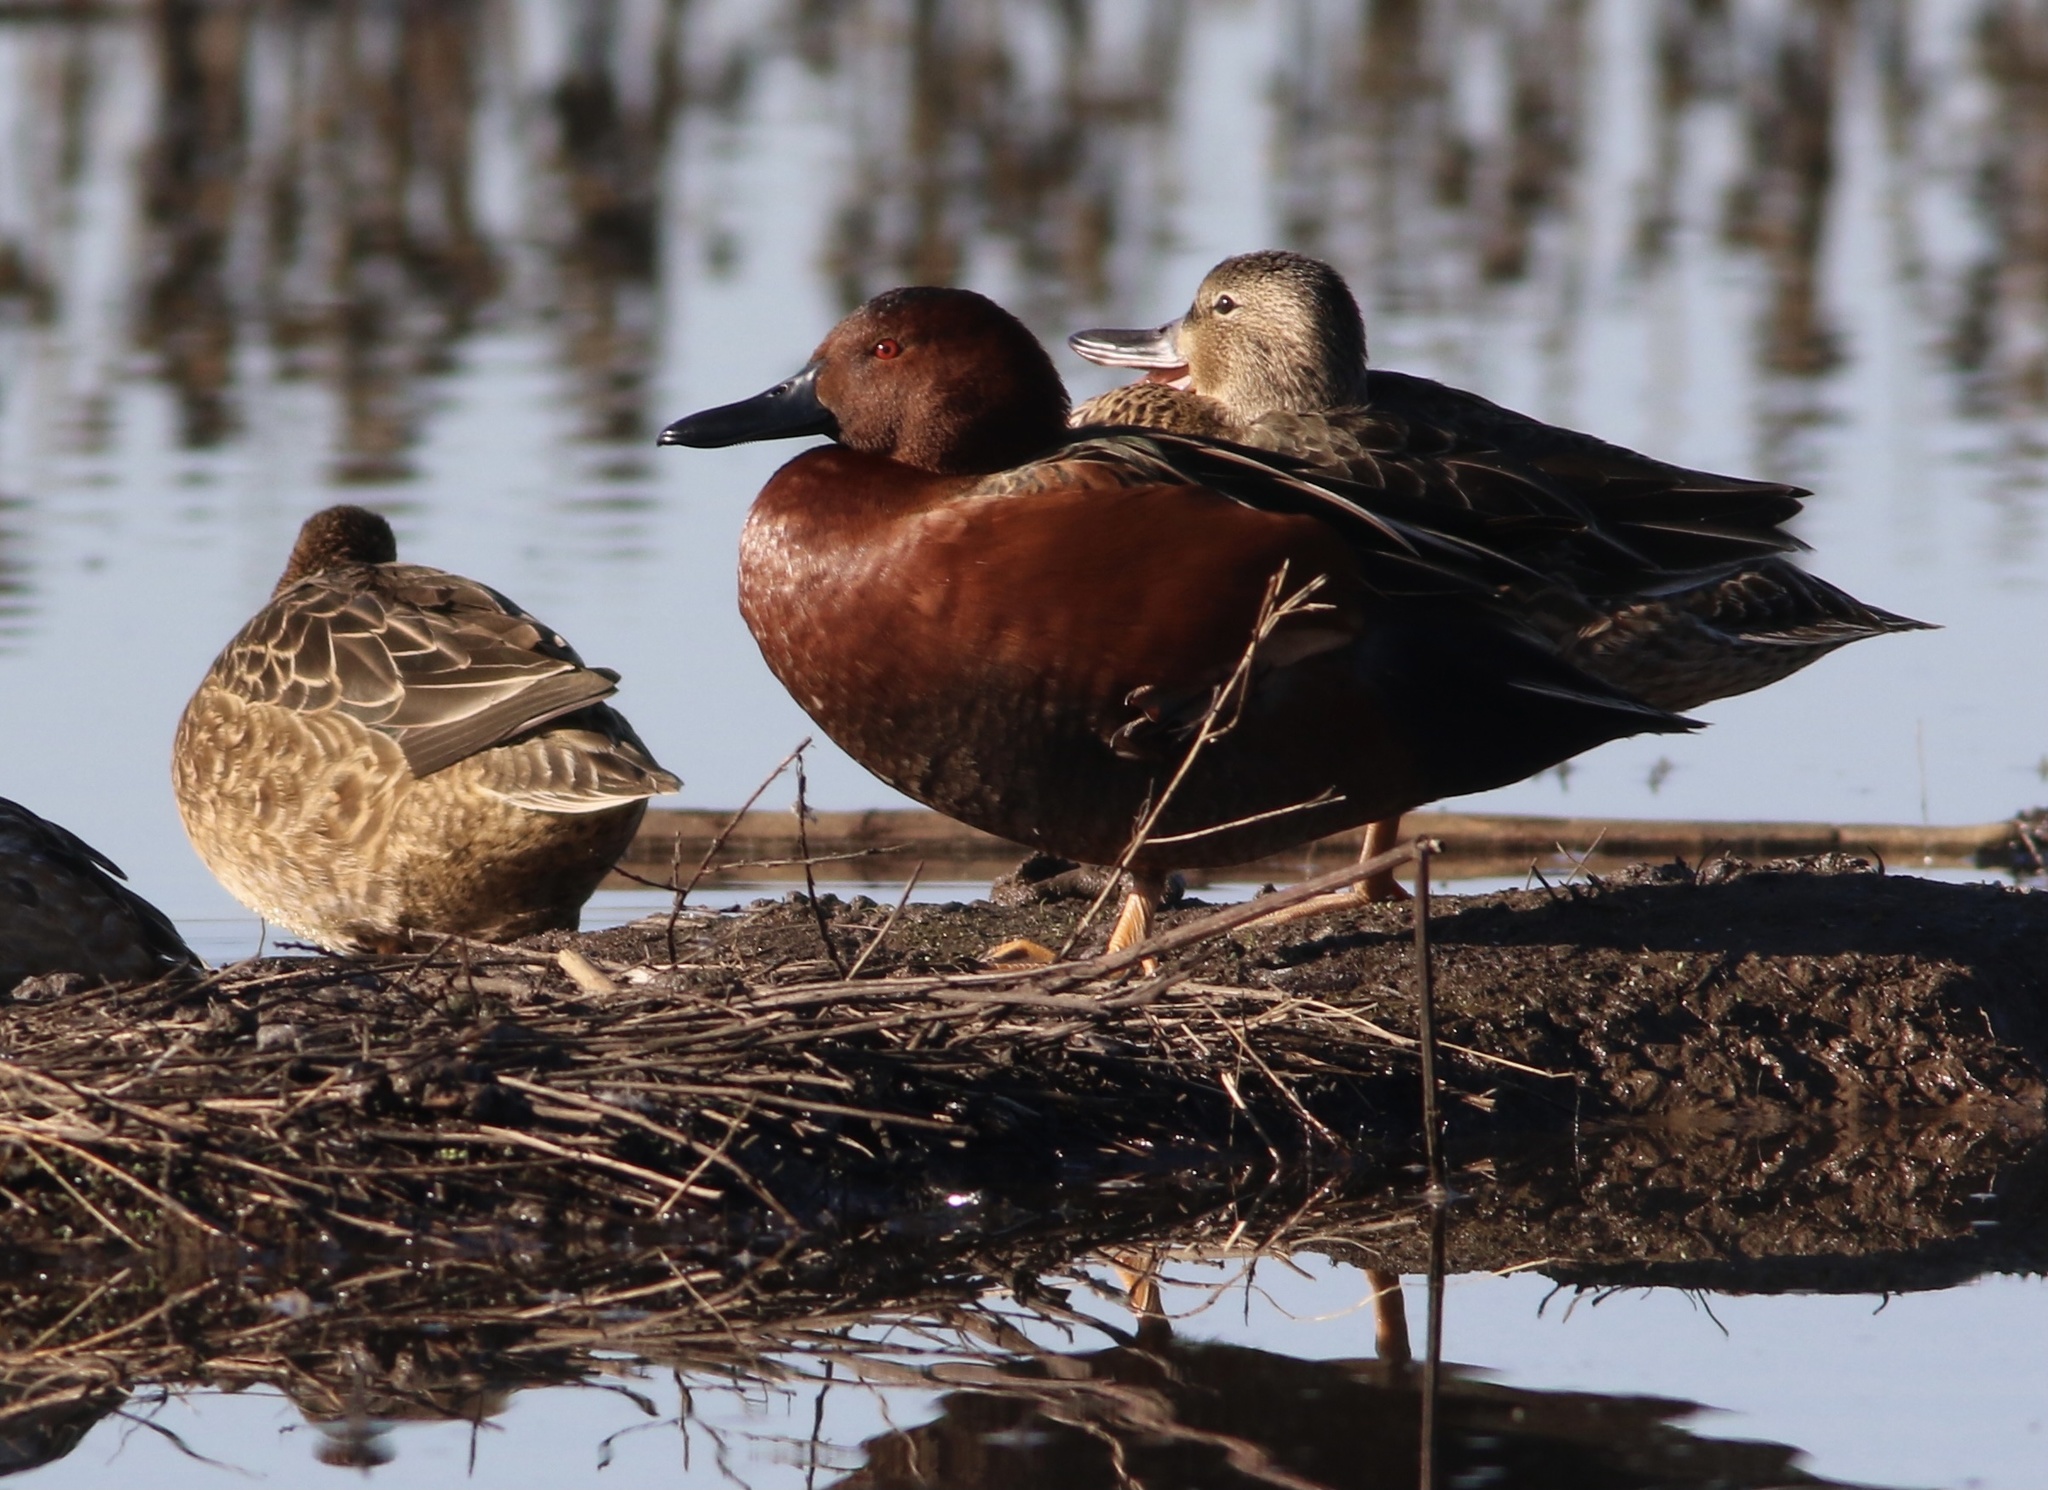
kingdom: Animalia
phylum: Chordata
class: Aves
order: Anseriformes
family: Anatidae
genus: Spatula
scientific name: Spatula cyanoptera
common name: Cinnamon teal
